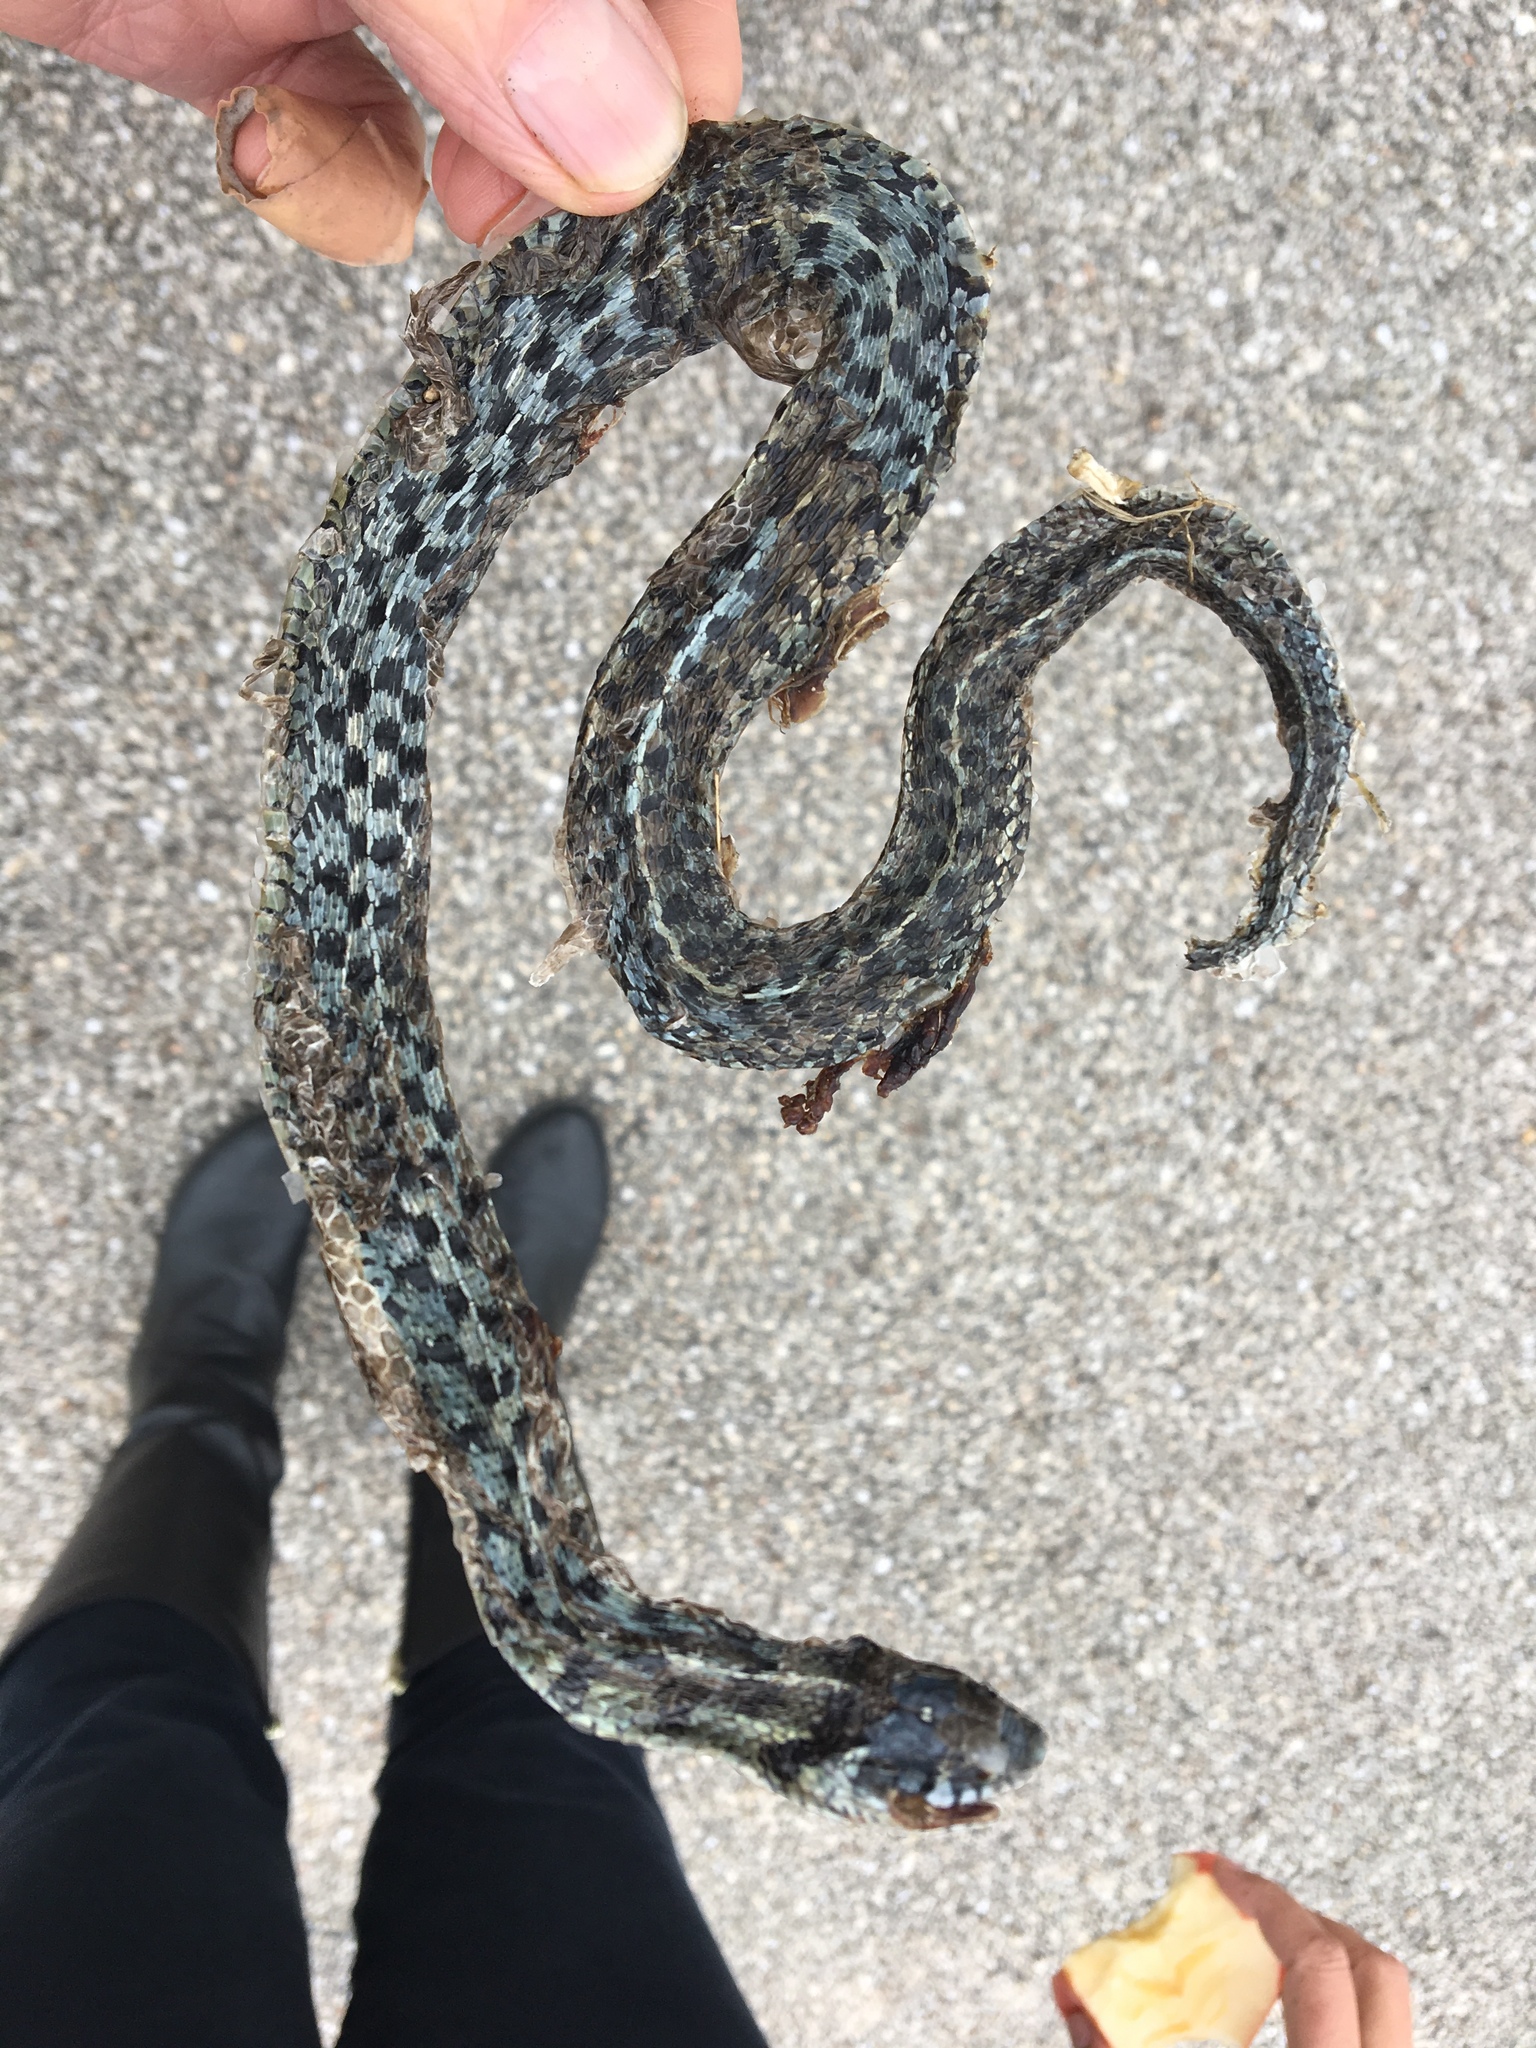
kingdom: Animalia
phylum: Chordata
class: Squamata
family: Colubridae
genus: Thamnophis
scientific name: Thamnophis marcianus
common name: Checkered garter snake
